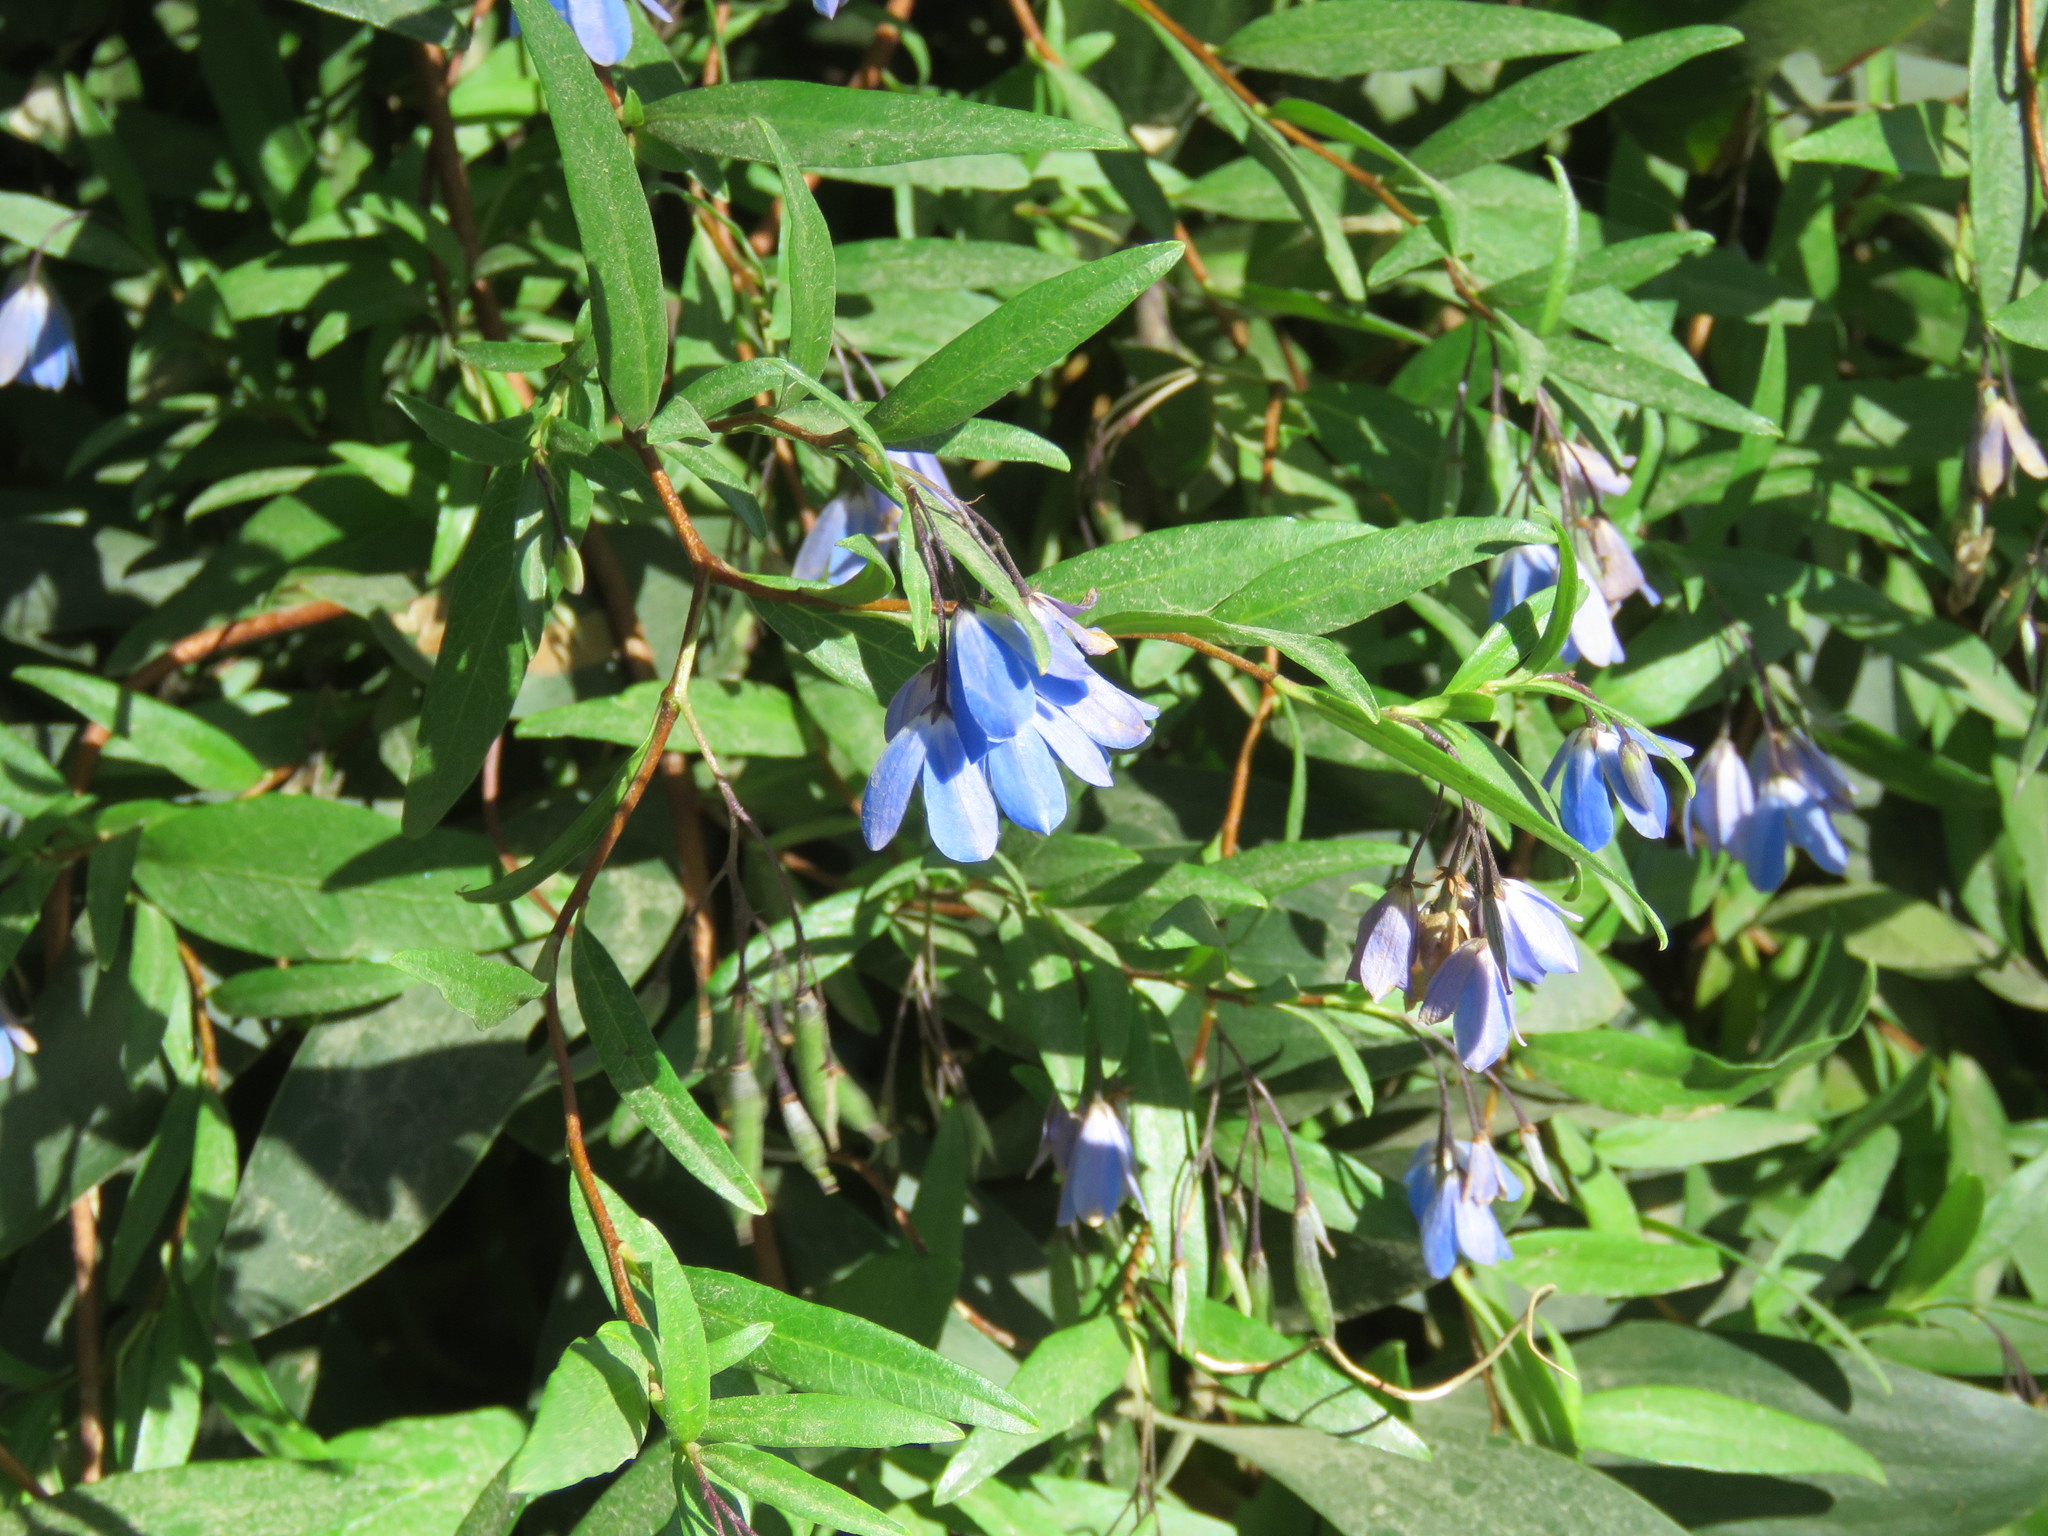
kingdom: Plantae
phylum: Tracheophyta
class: Magnoliopsida
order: Apiales
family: Pittosporaceae
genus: Billardiera
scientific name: Billardiera fusiformis
